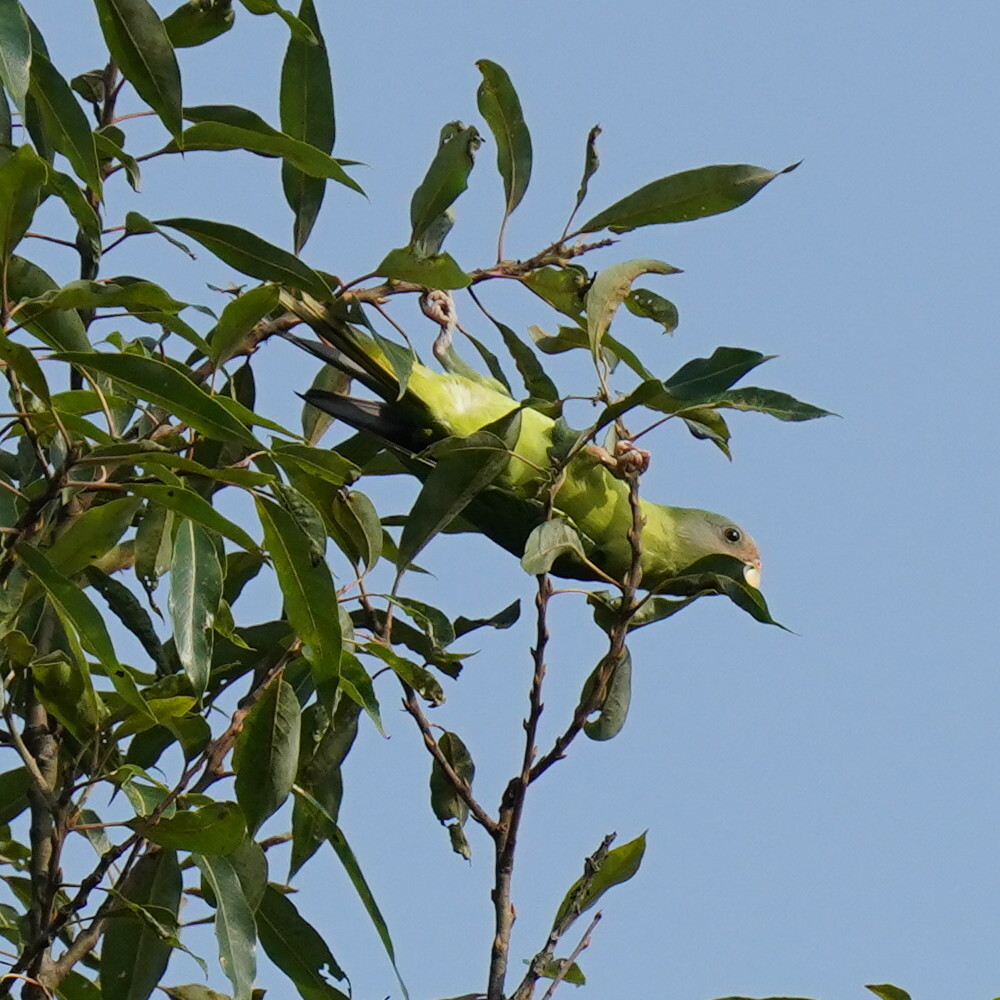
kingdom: Animalia
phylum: Chordata
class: Aves
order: Psittaciformes
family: Psittacidae
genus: Psittacula
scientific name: Psittacula cyanocephala
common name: Plum-headed parakeet
